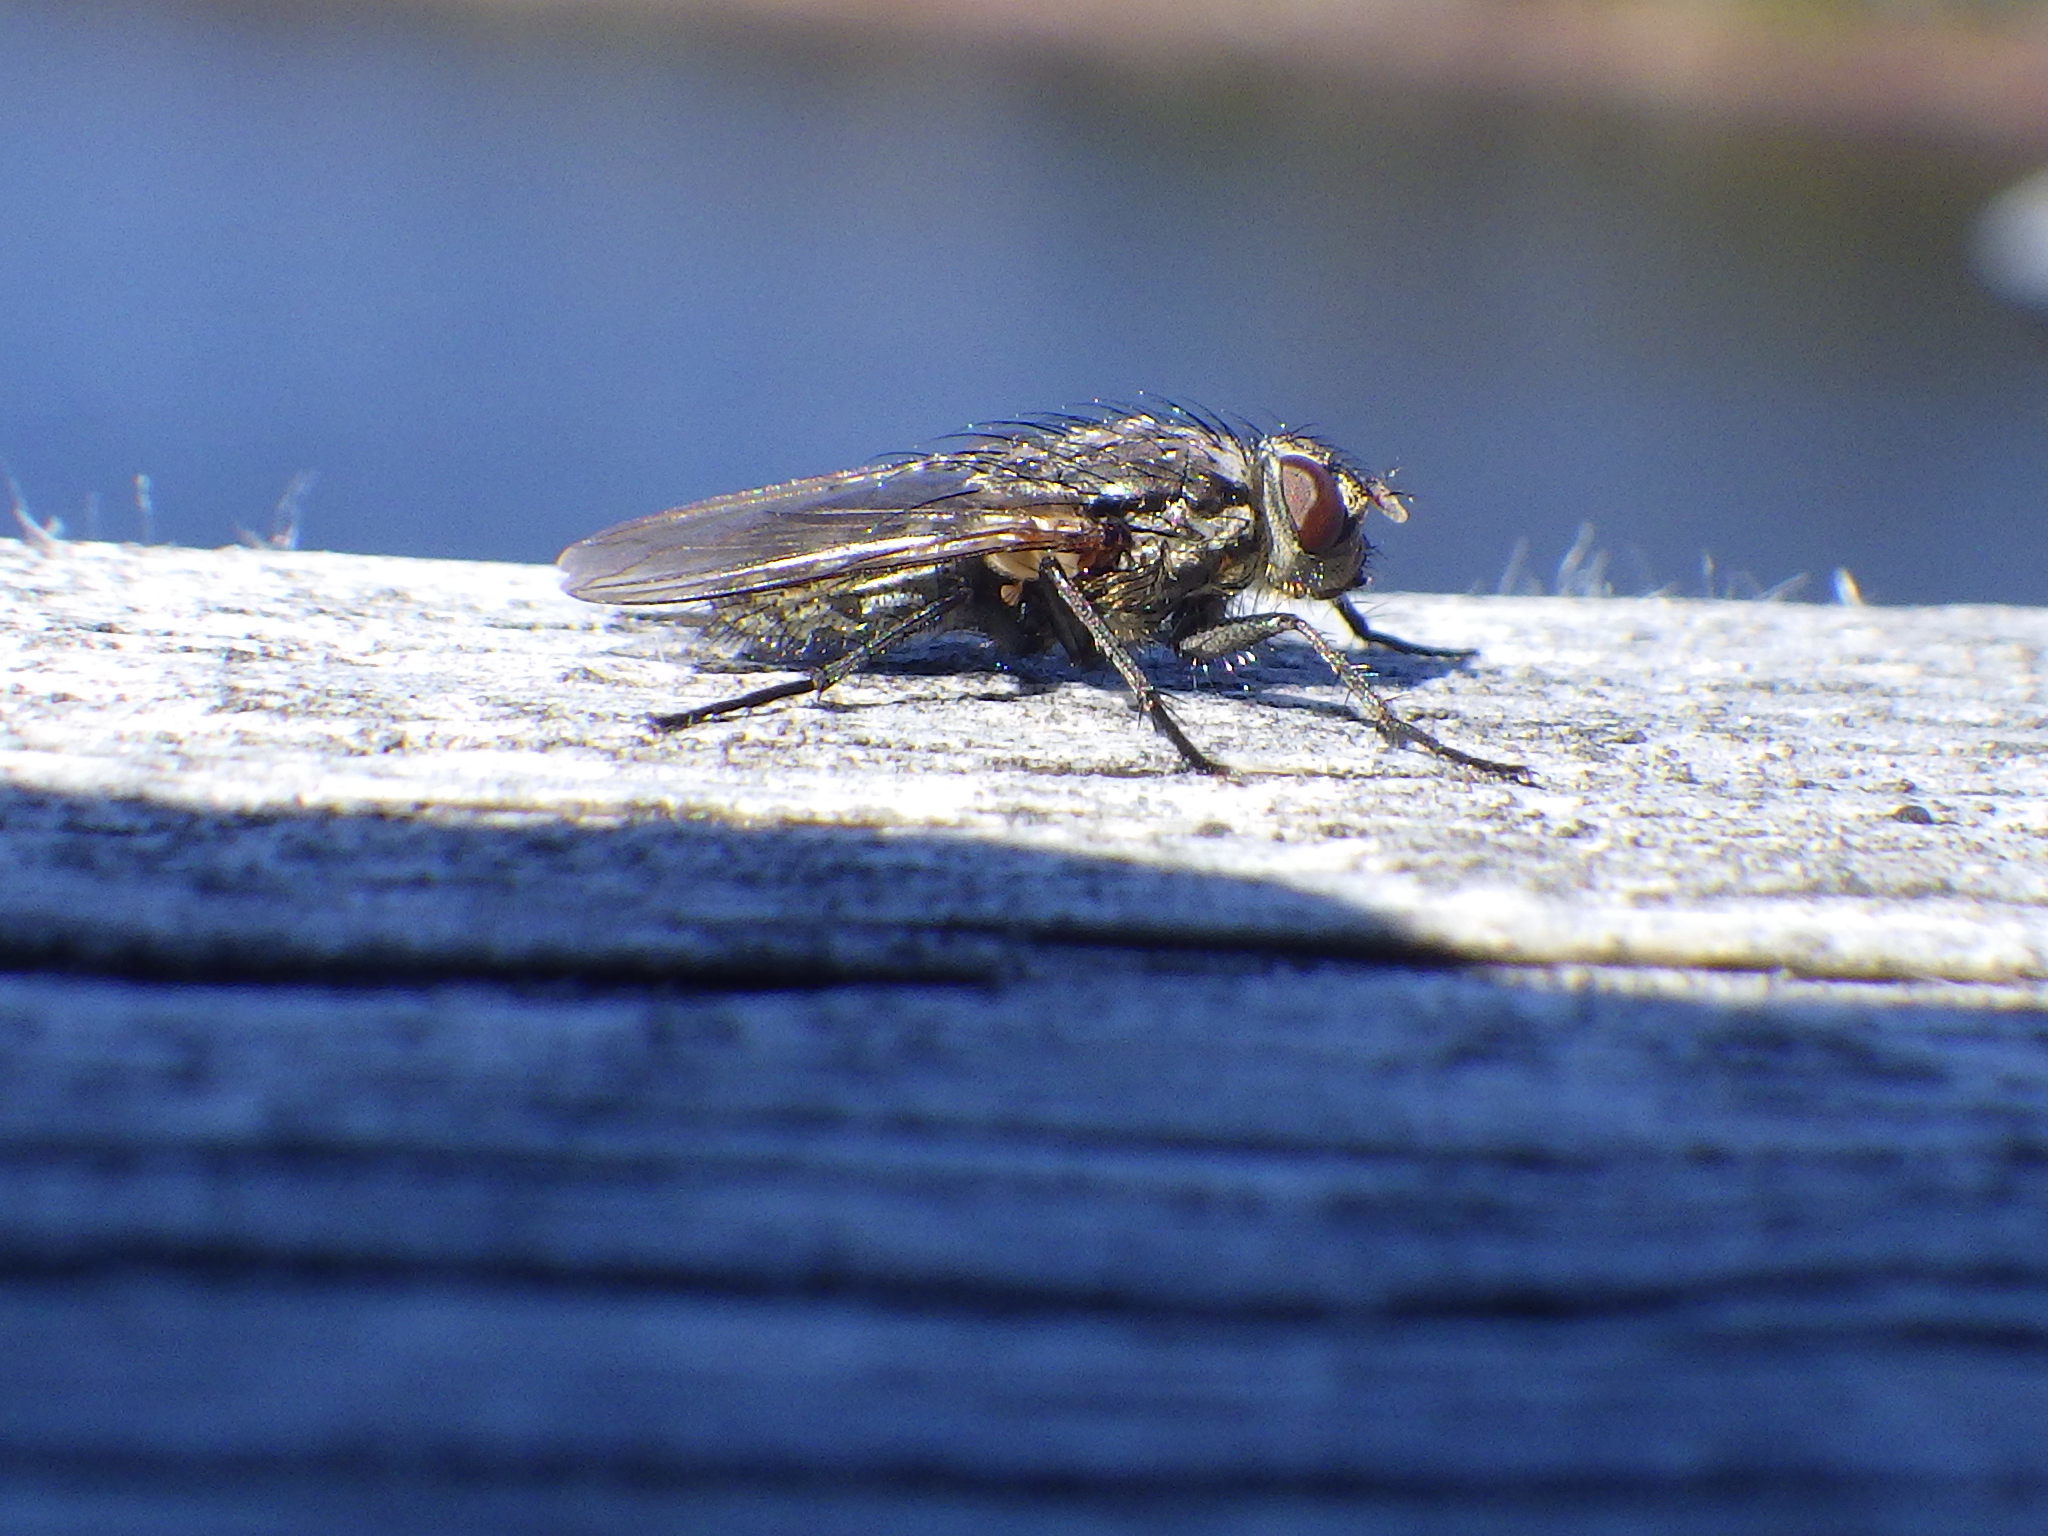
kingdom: Animalia
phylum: Arthropoda
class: Insecta
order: Diptera
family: Polleniidae
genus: Pollenia
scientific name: Pollenia vagabunda
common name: Vagabund cluster fly
